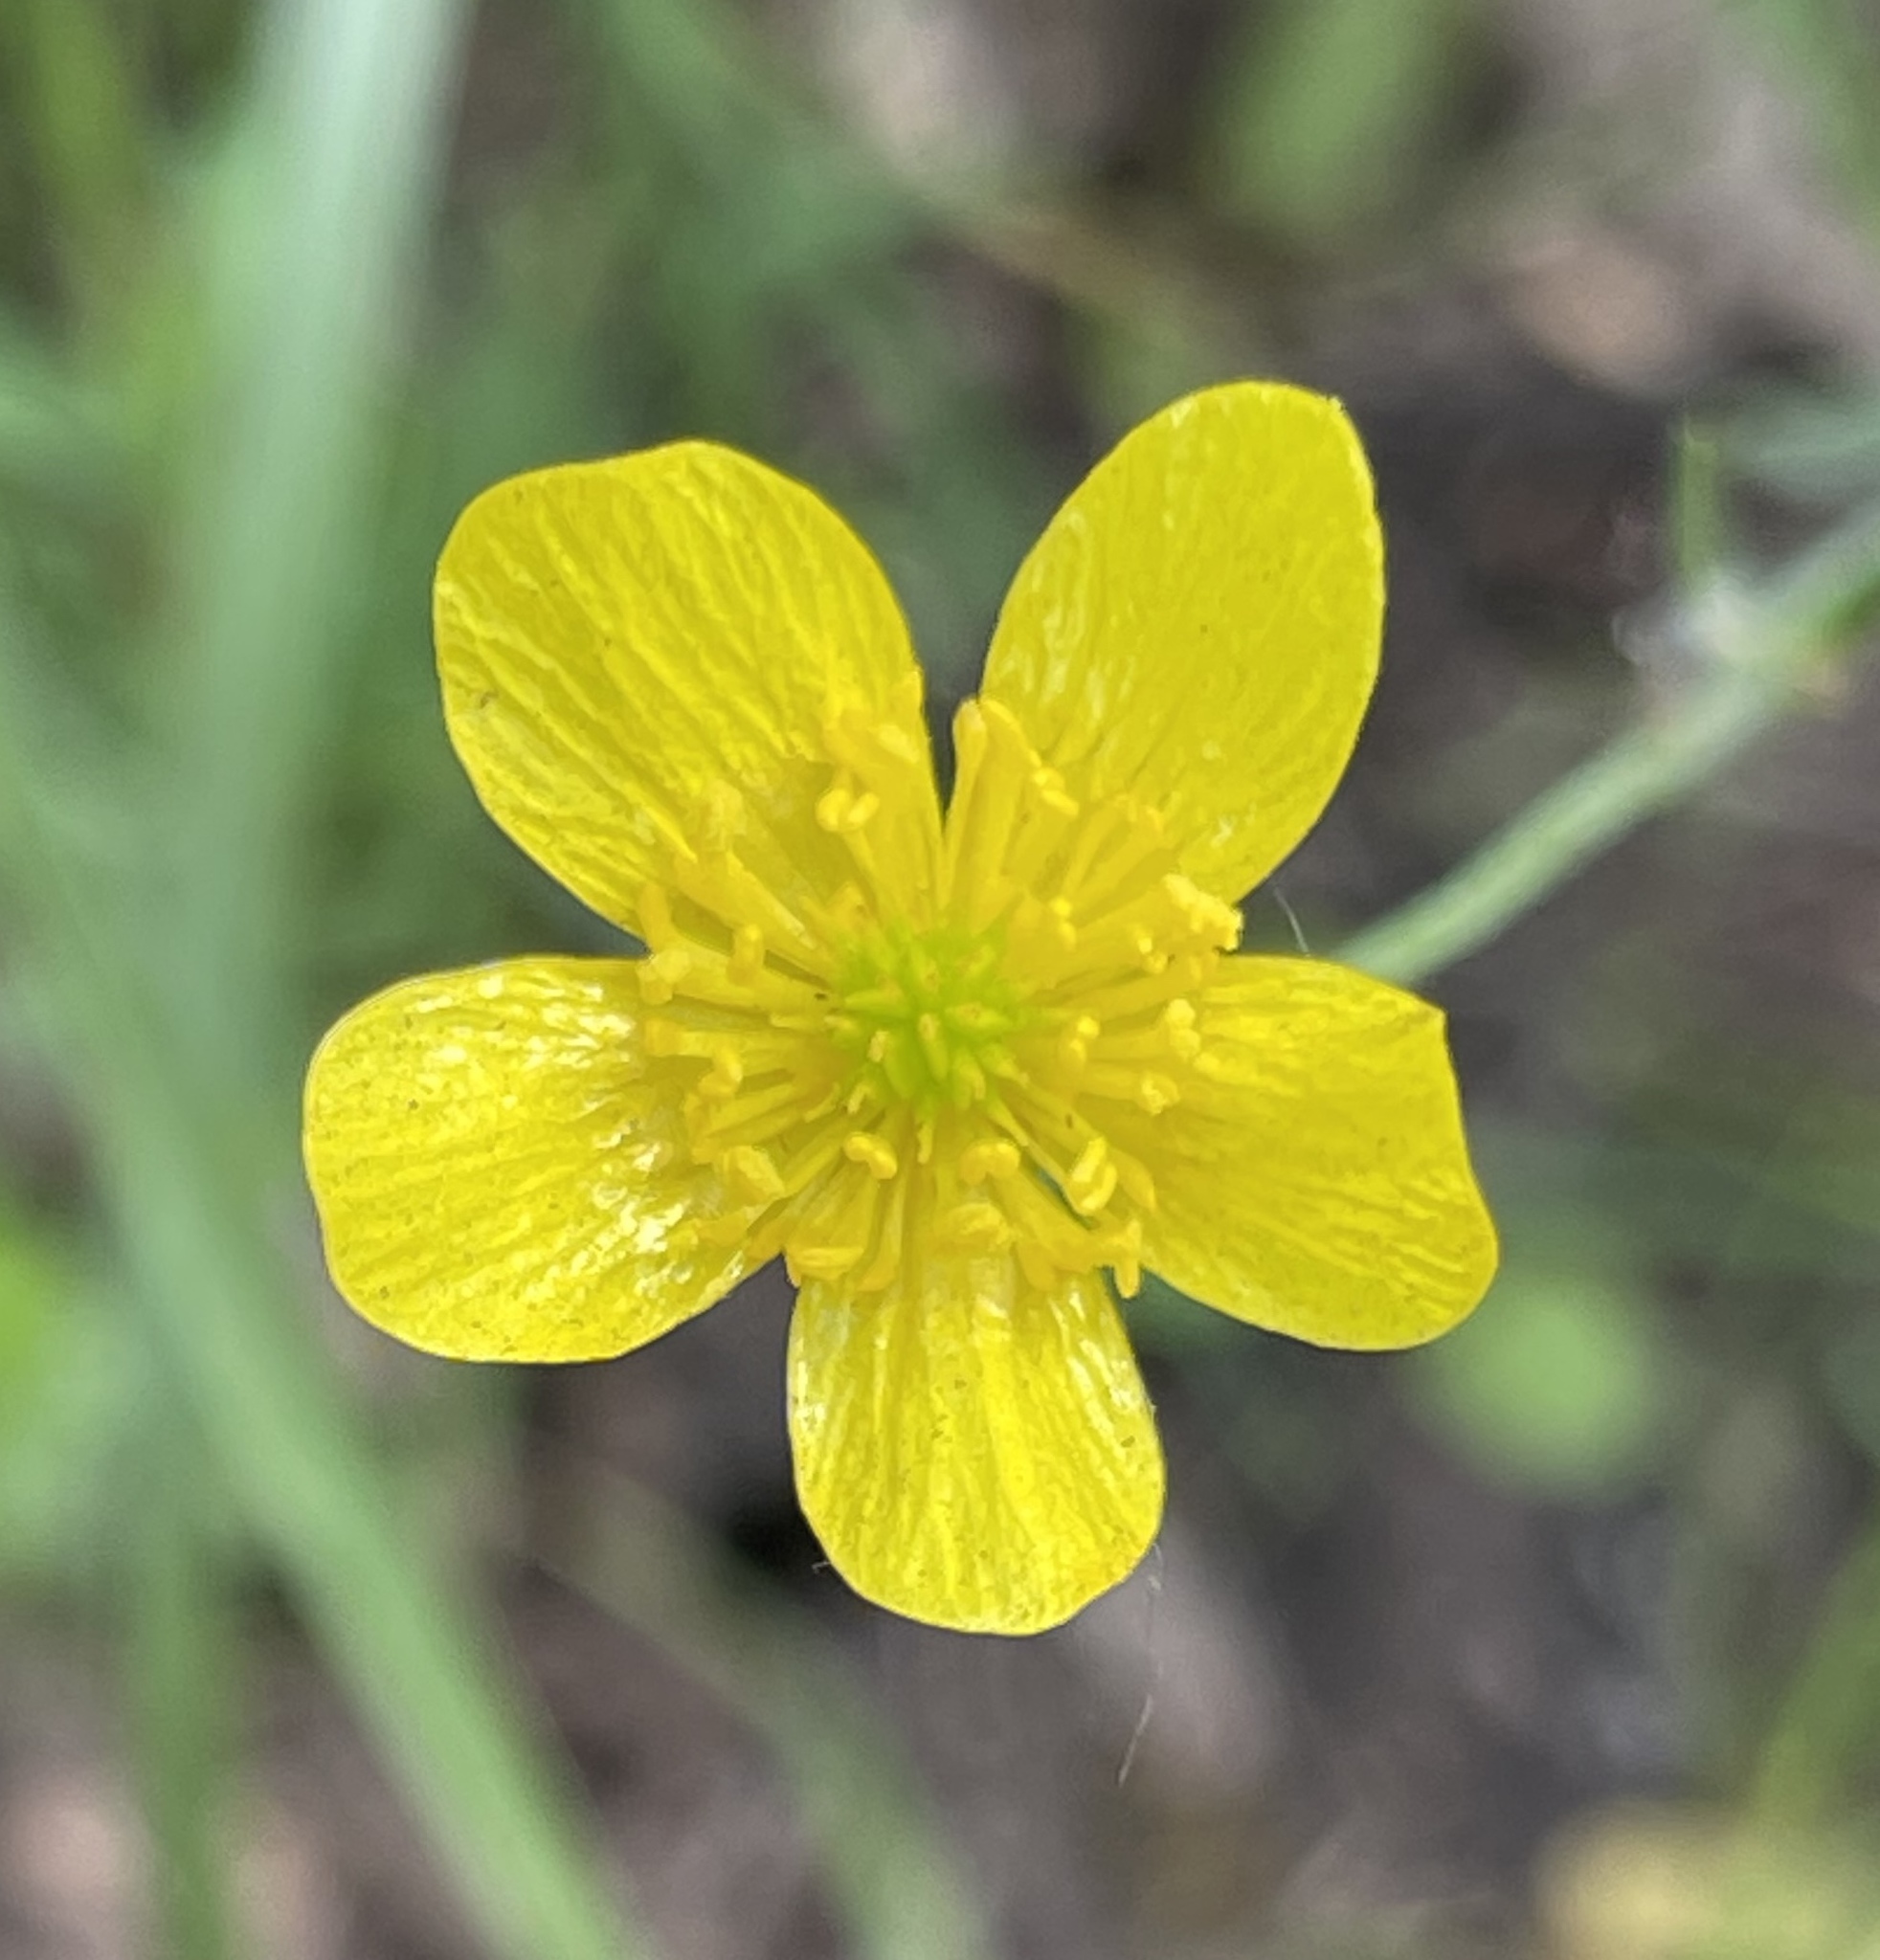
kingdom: Plantae
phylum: Tracheophyta
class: Magnoliopsida
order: Ranunculales
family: Ranunculaceae
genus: Ranunculus
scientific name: Ranunculus occidentalis
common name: Western buttercup
